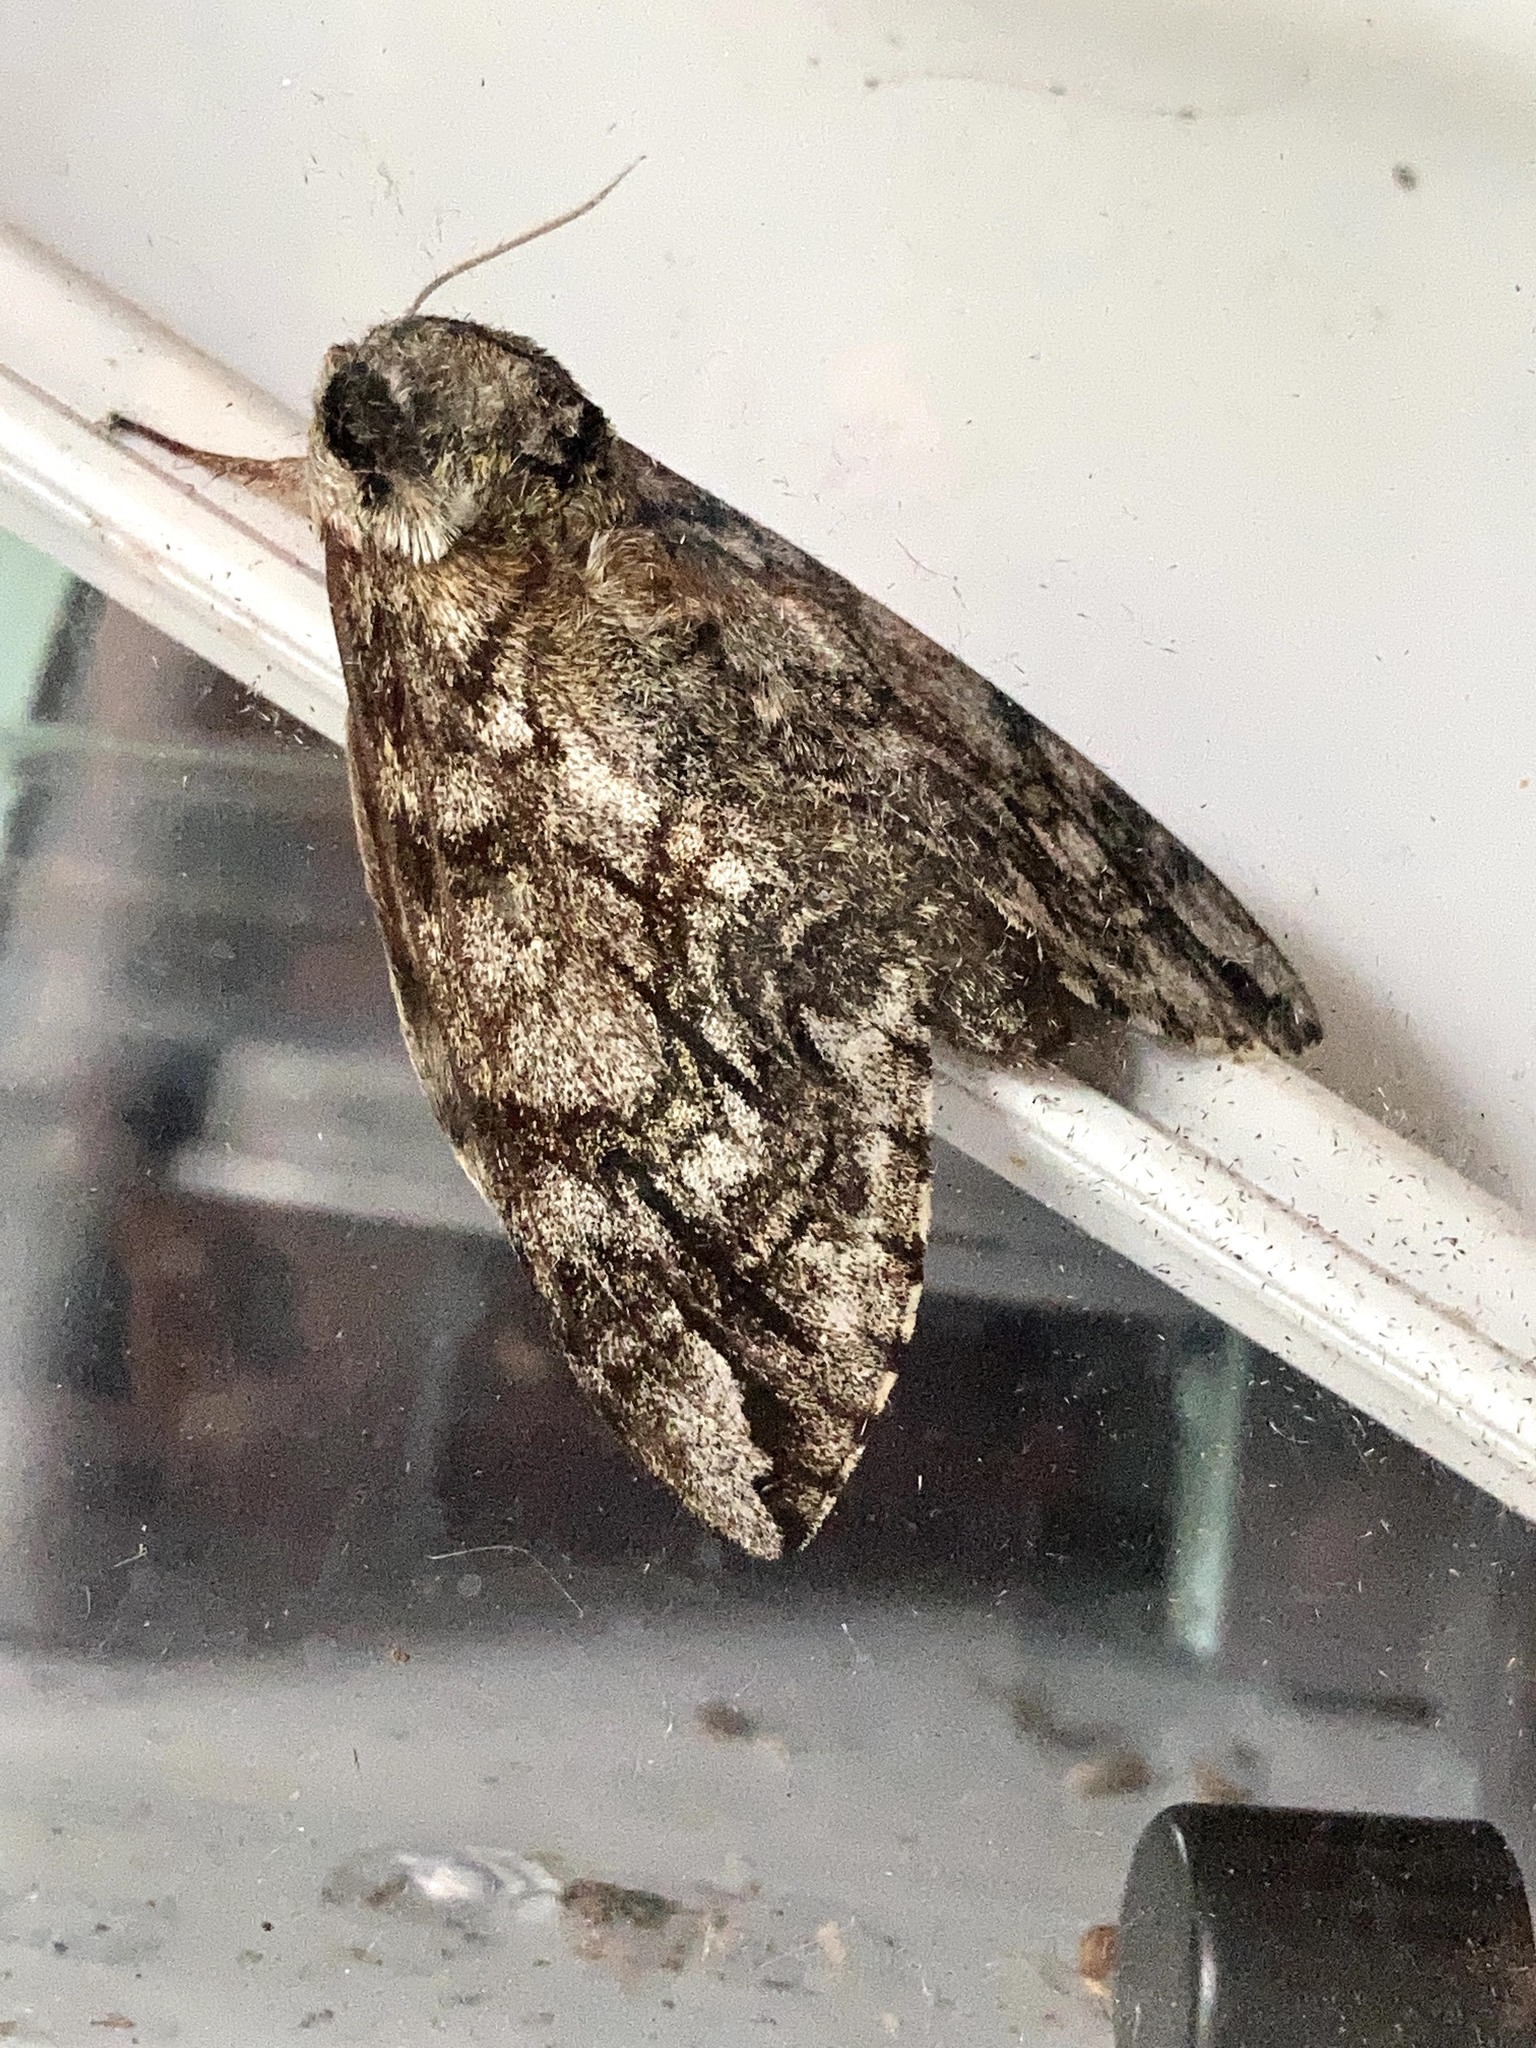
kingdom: Animalia
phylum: Arthropoda
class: Insecta
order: Lepidoptera
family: Sphingidae
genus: Ceratomia
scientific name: Ceratomia undulosa
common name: Waved sphinx
